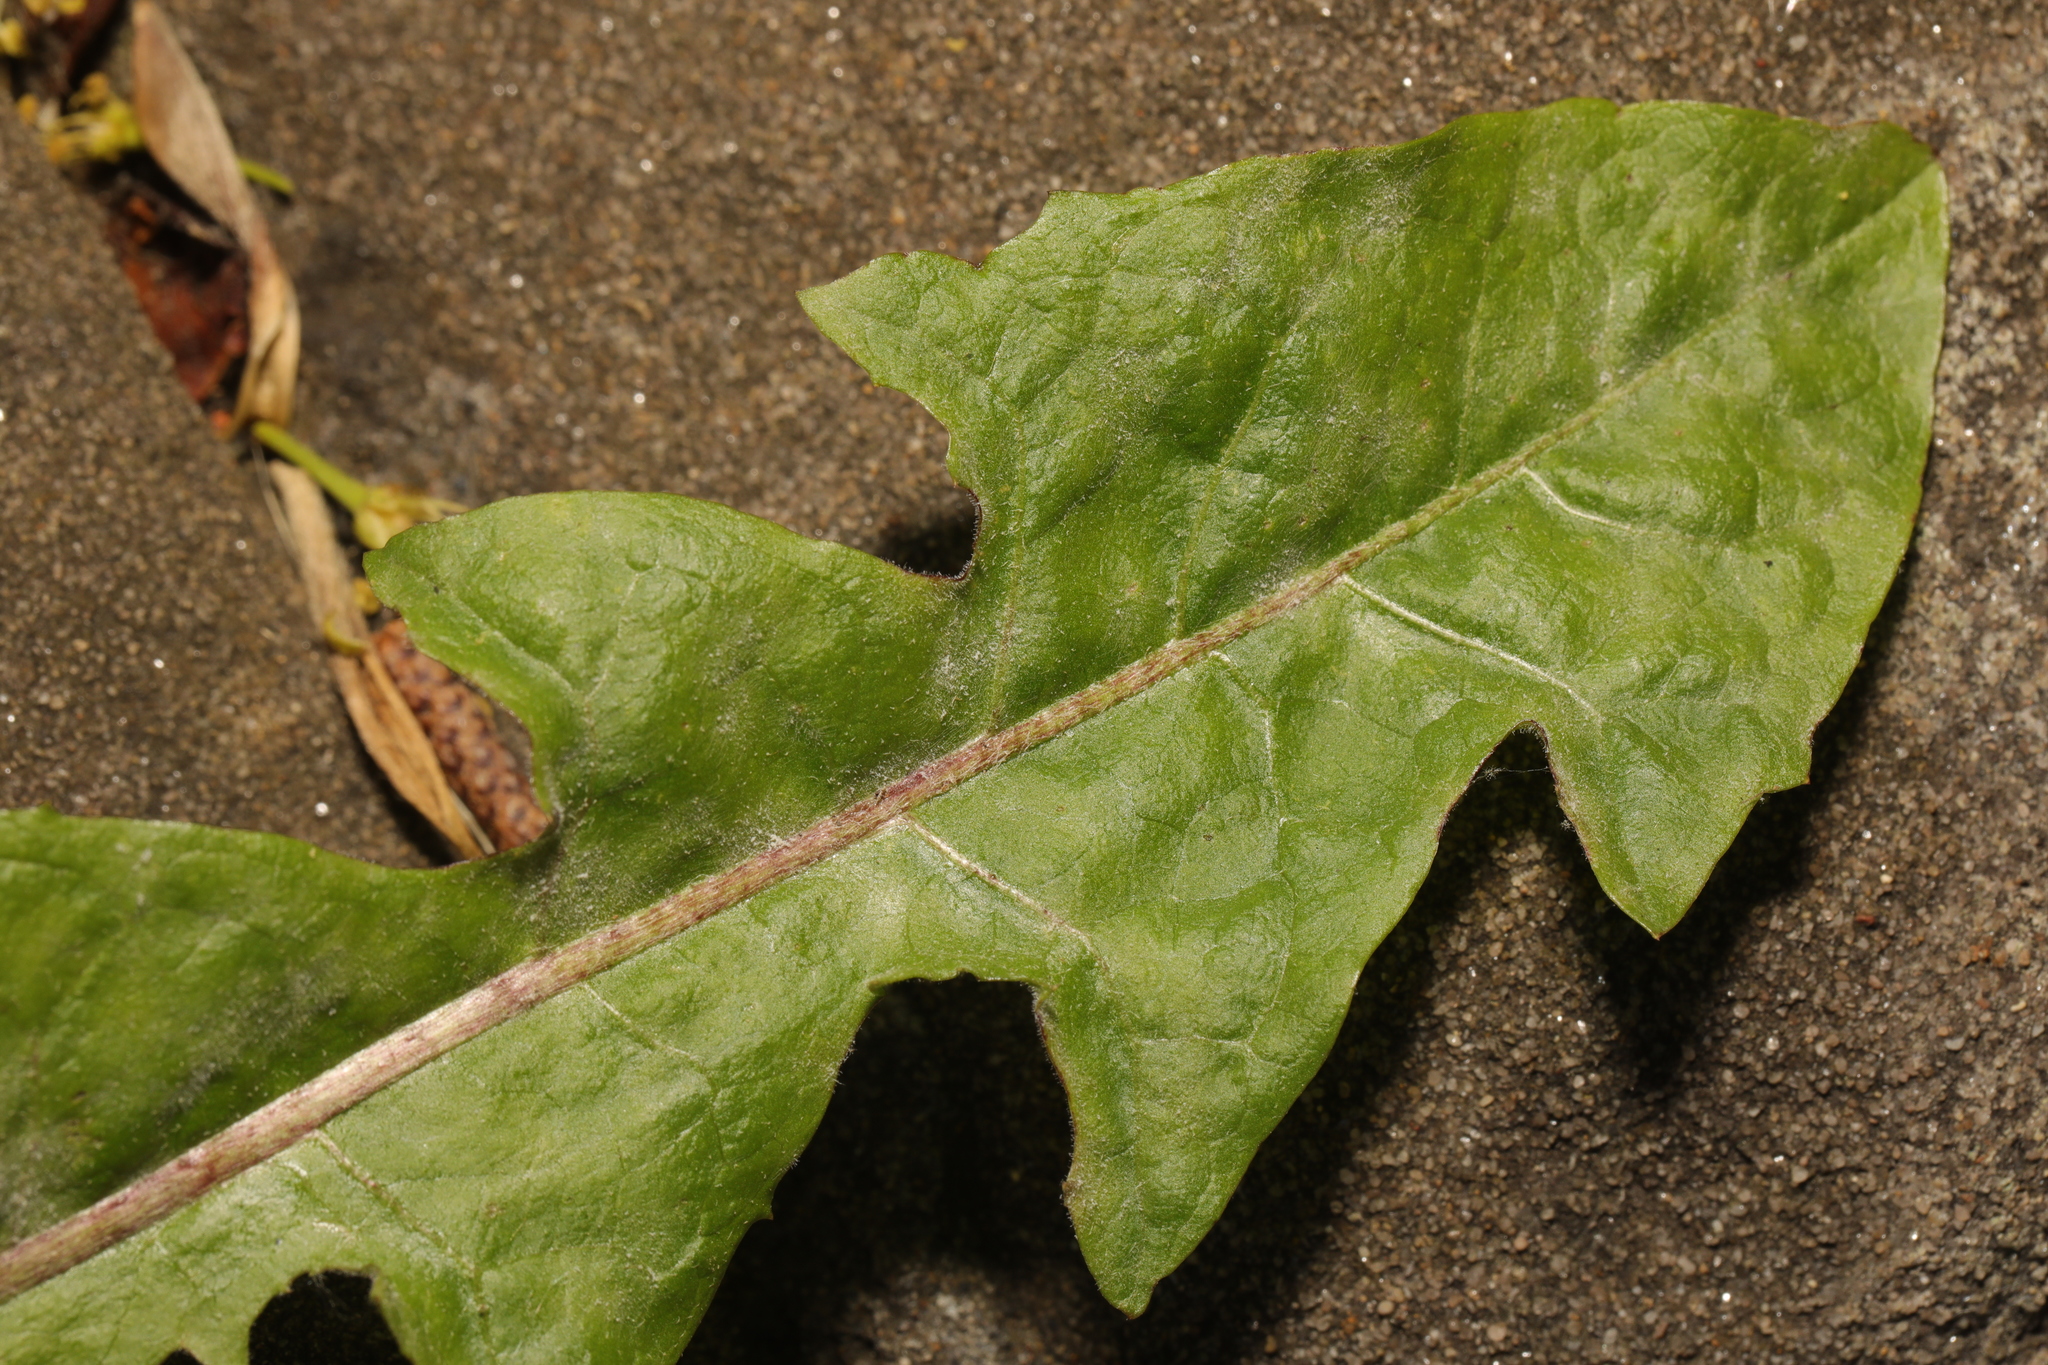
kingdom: Fungi
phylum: Ascomycota
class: Leotiomycetes
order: Helotiales
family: Erysiphaceae
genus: Podosphaera
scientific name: Podosphaera erigerontis-canadensis
